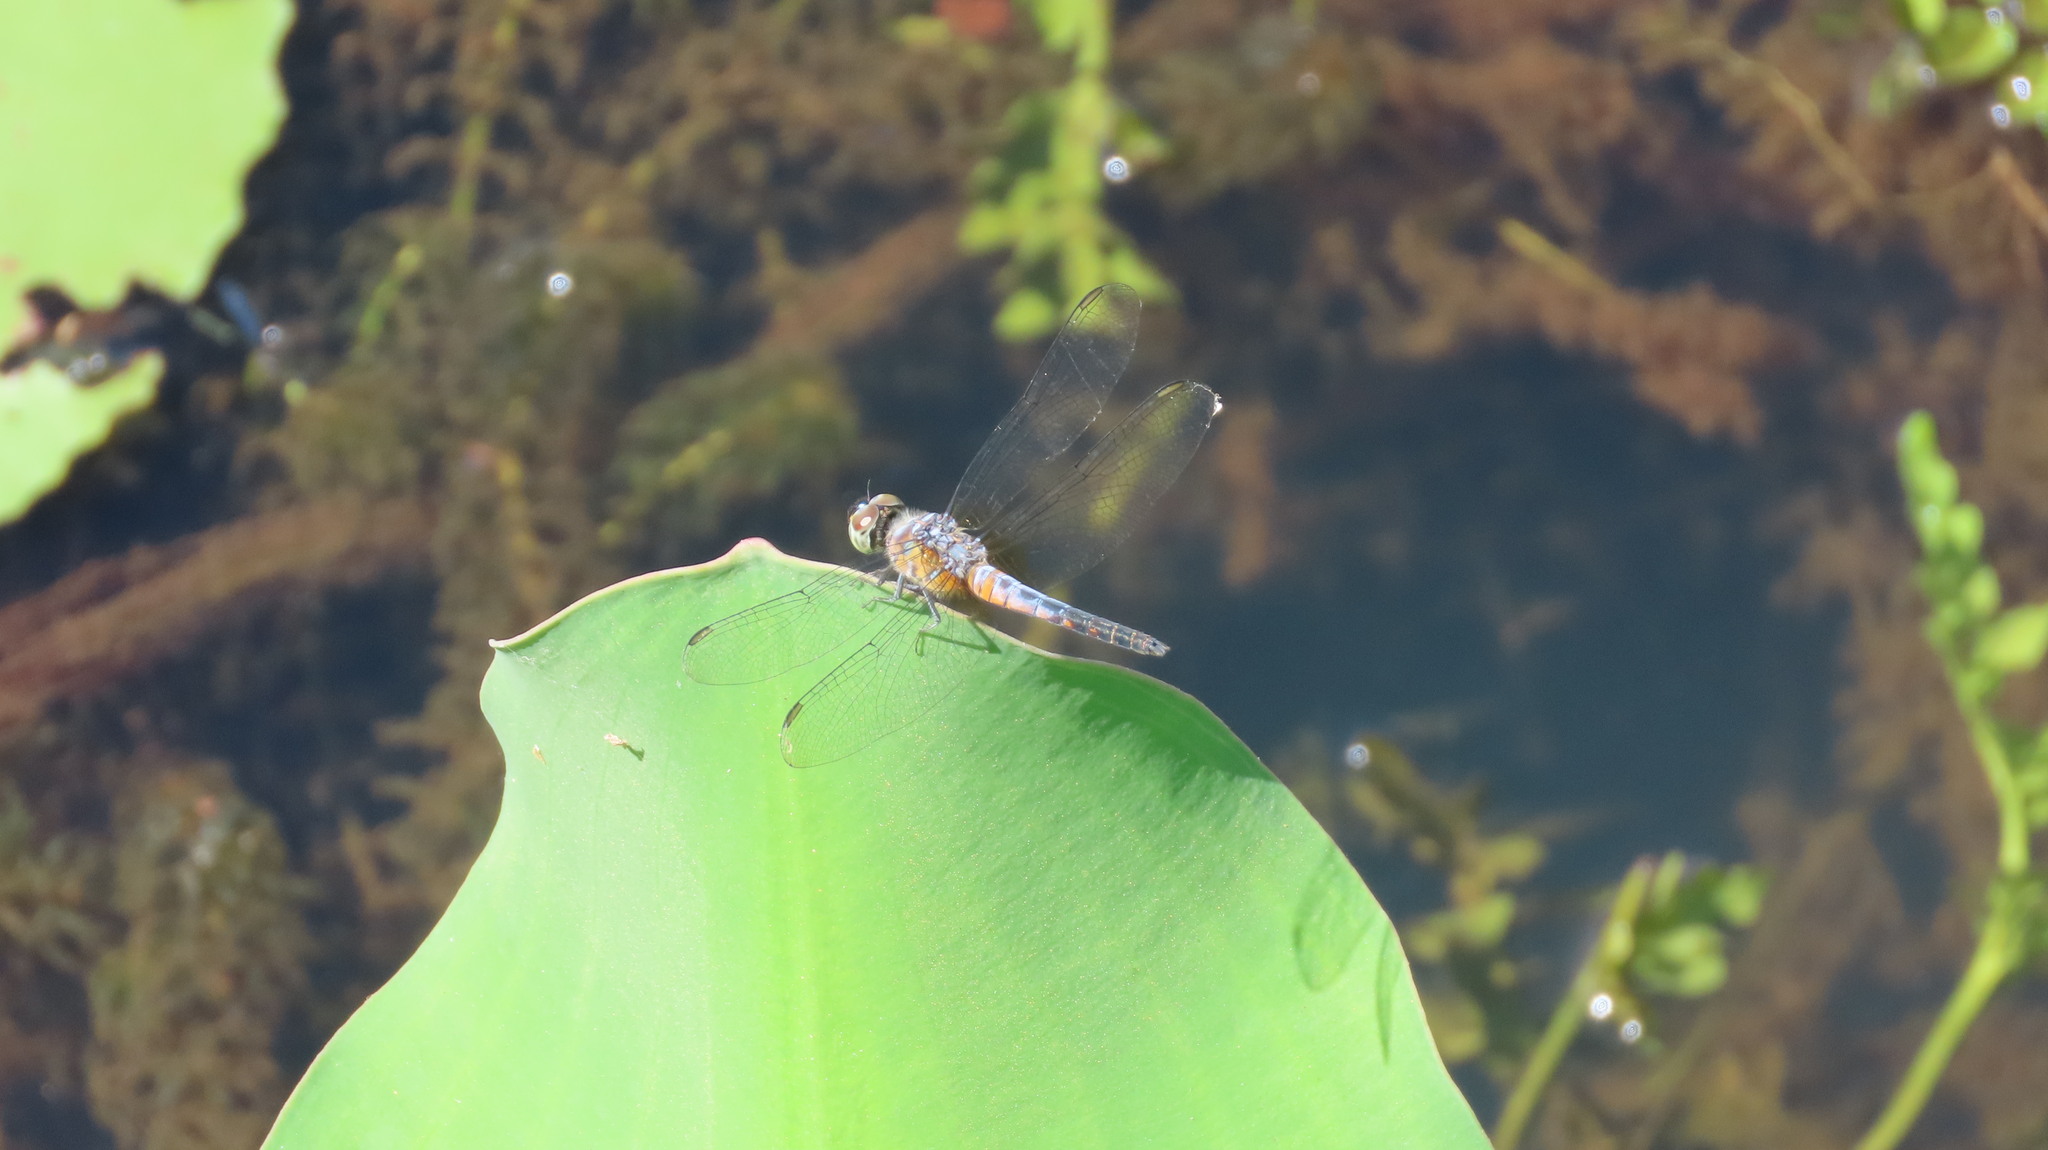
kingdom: Animalia
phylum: Arthropoda
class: Insecta
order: Odonata
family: Libellulidae
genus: Brachydiplax
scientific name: Brachydiplax chalybea
